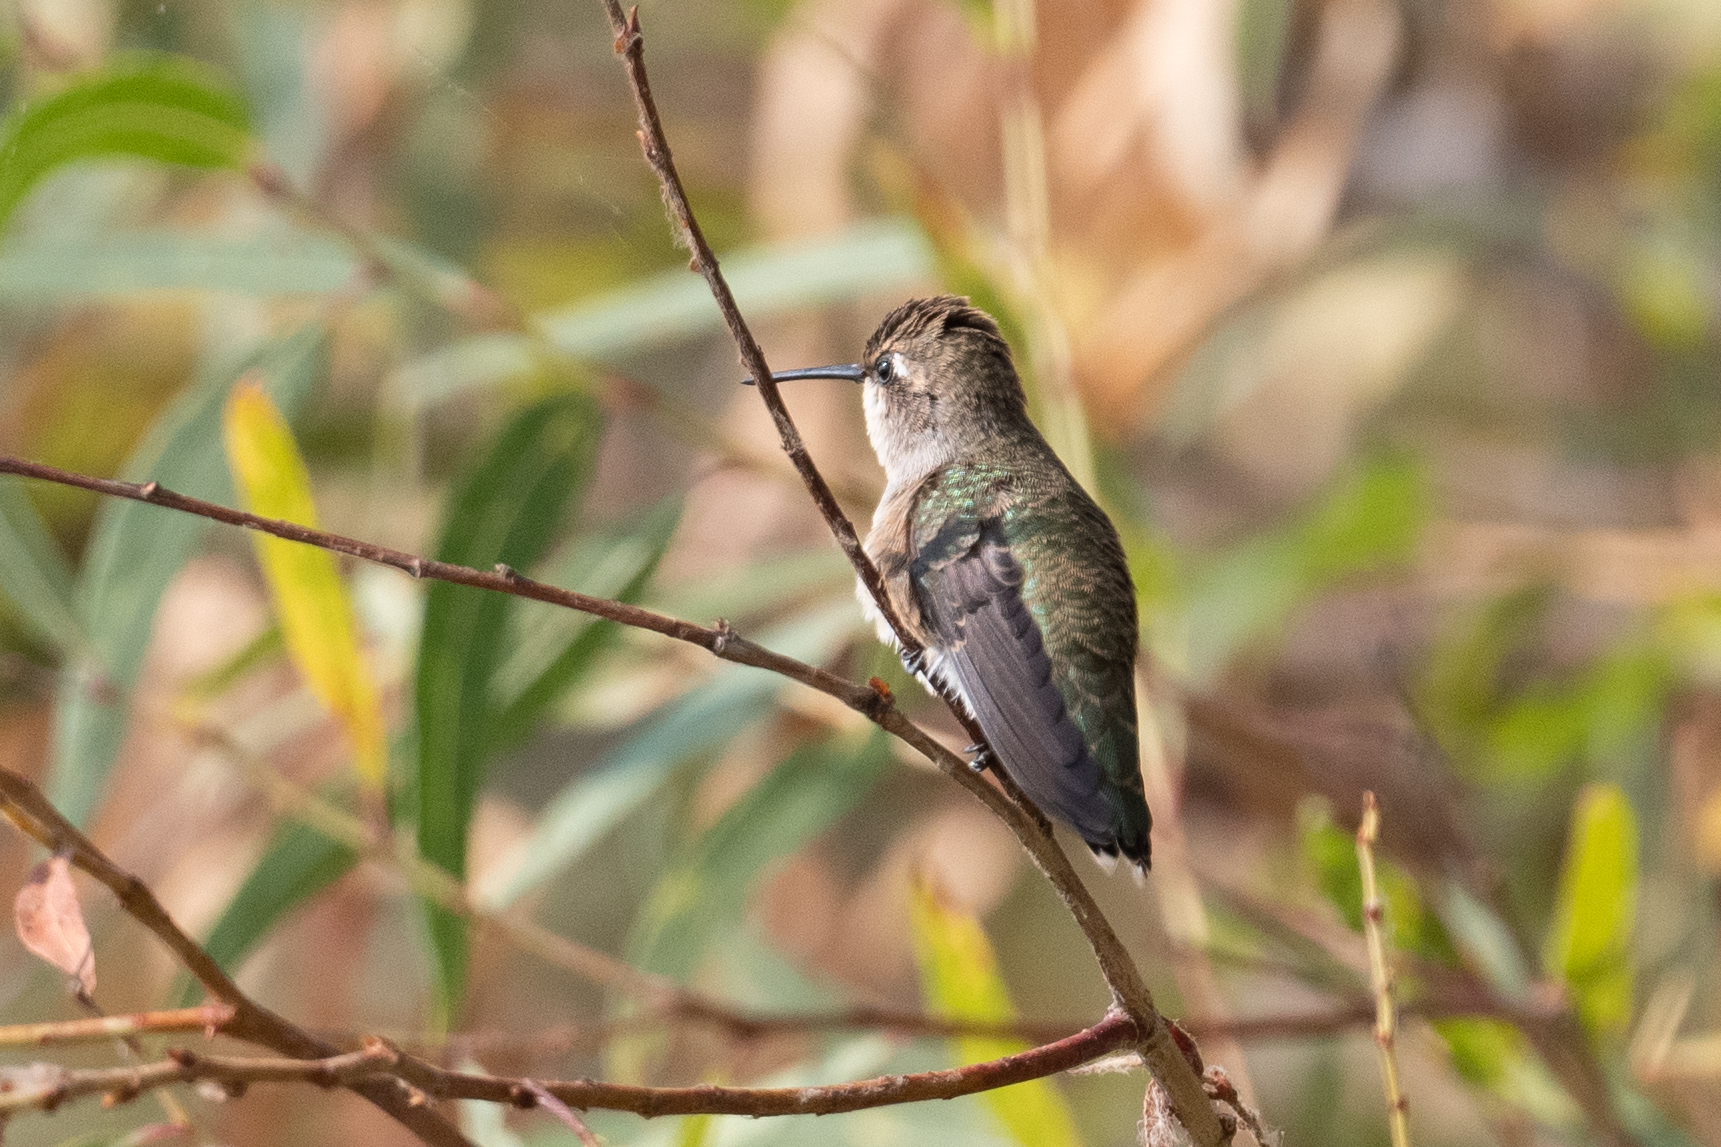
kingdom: Animalia
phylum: Chordata
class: Aves
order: Apodiformes
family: Trochilidae
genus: Archilochus
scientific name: Archilochus alexandri
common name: Black-chinned hummingbird
